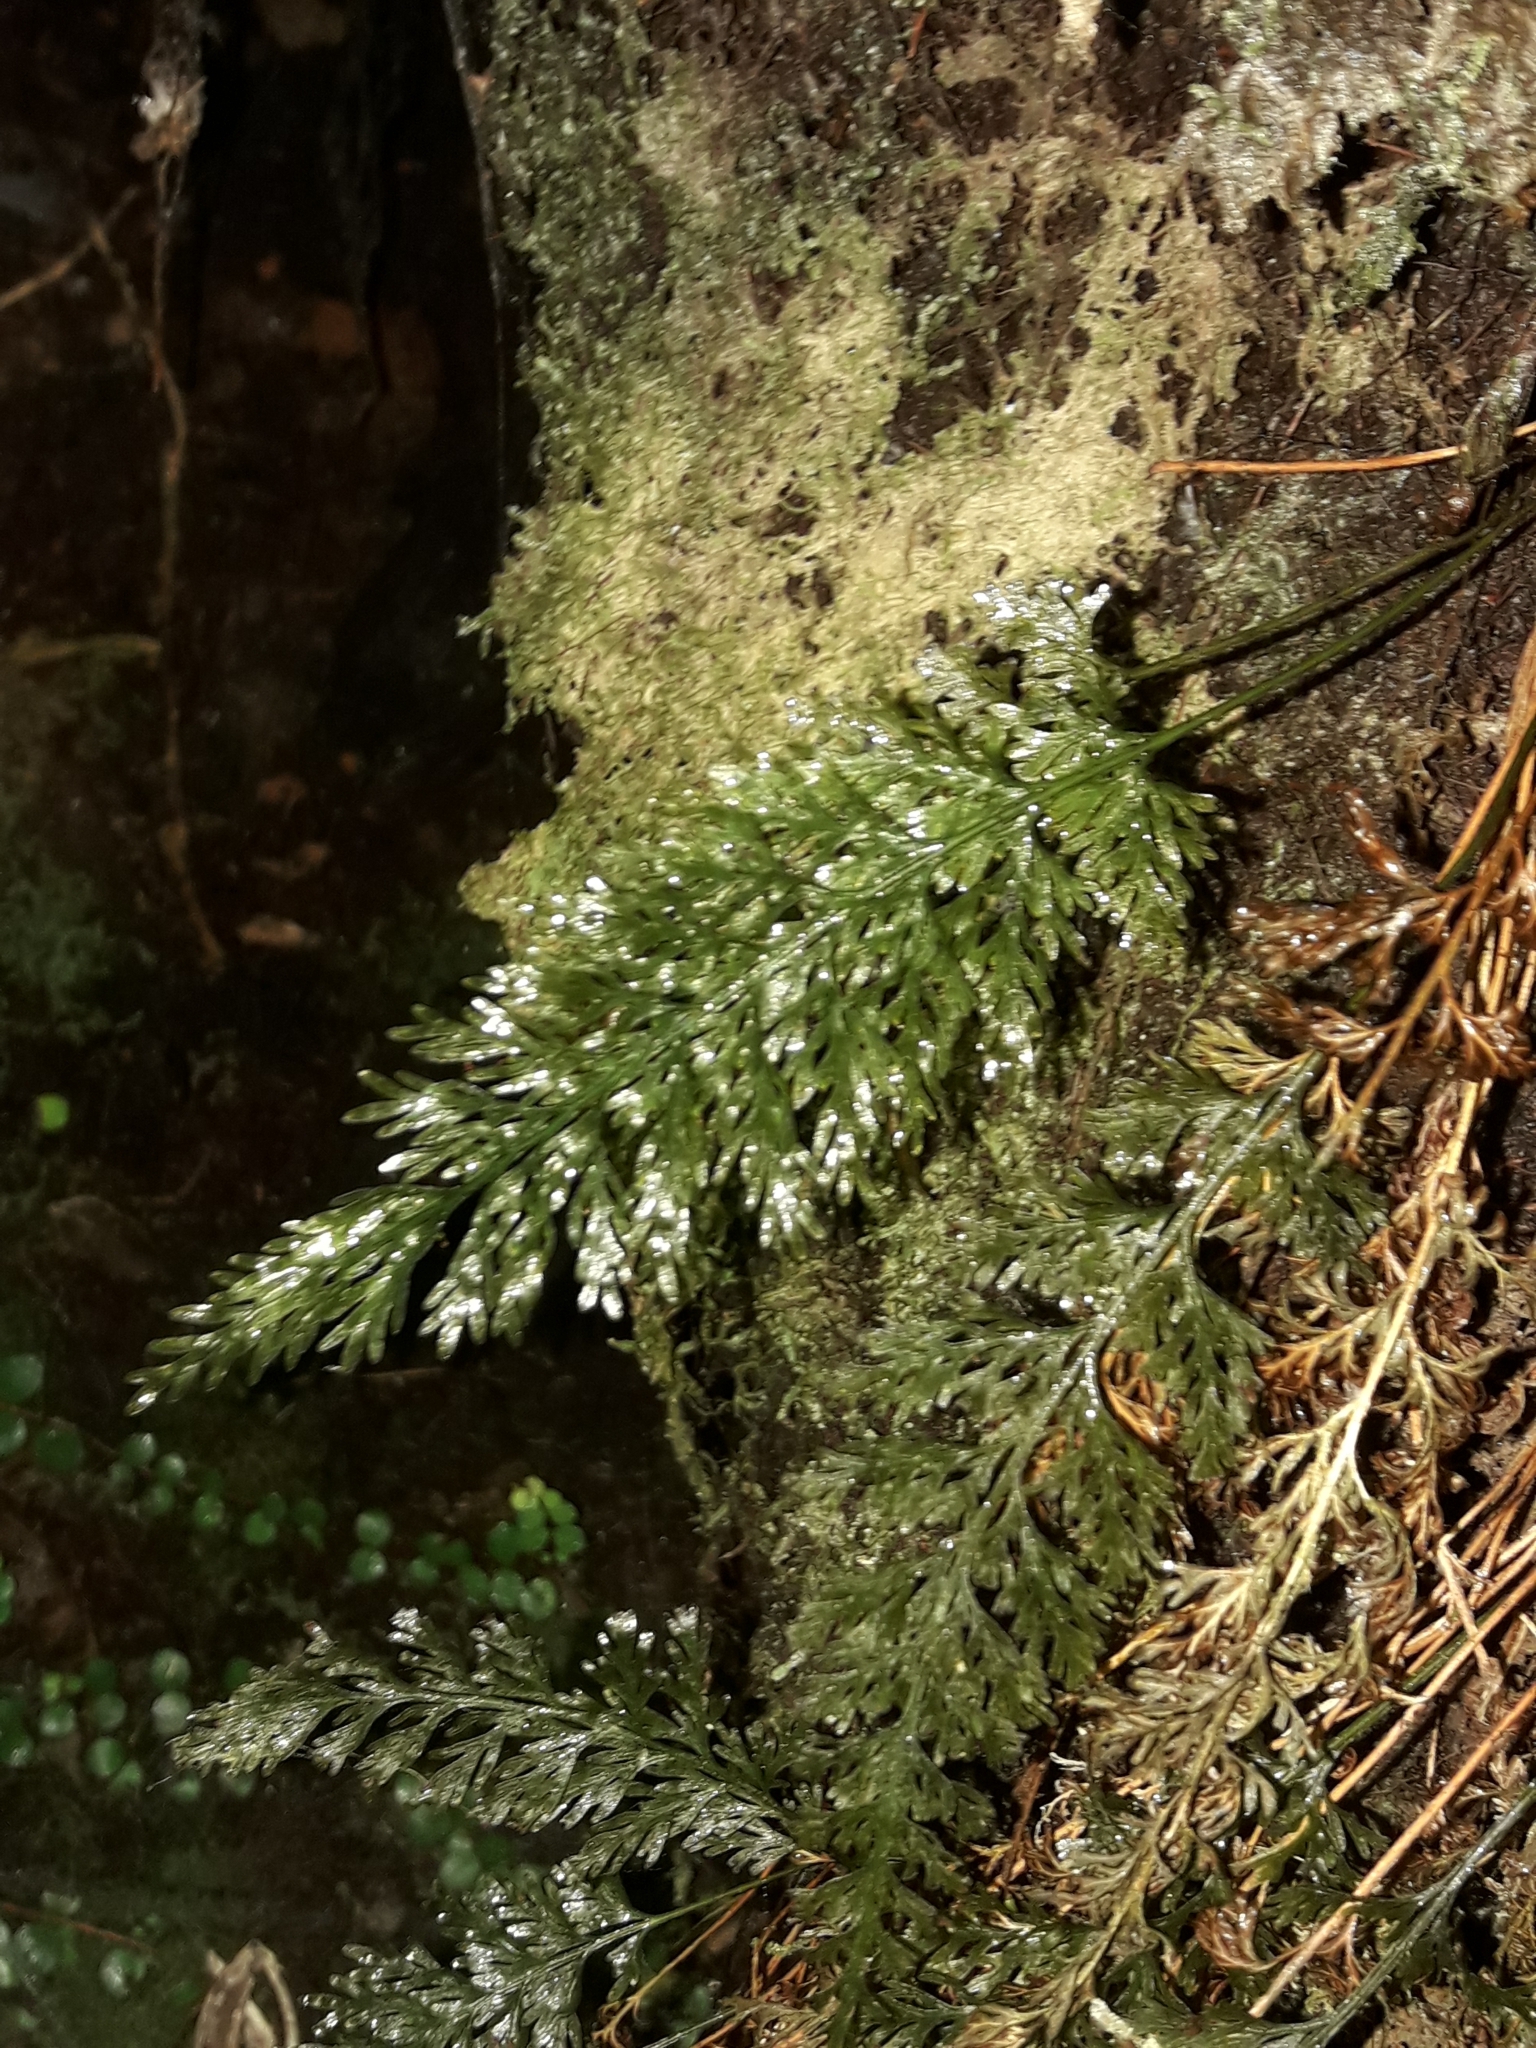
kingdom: Plantae
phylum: Tracheophyta
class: Polypodiopsida
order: Hymenophyllales
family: Hymenophyllaceae
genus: Abrodictyum
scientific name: Abrodictyum strictum
